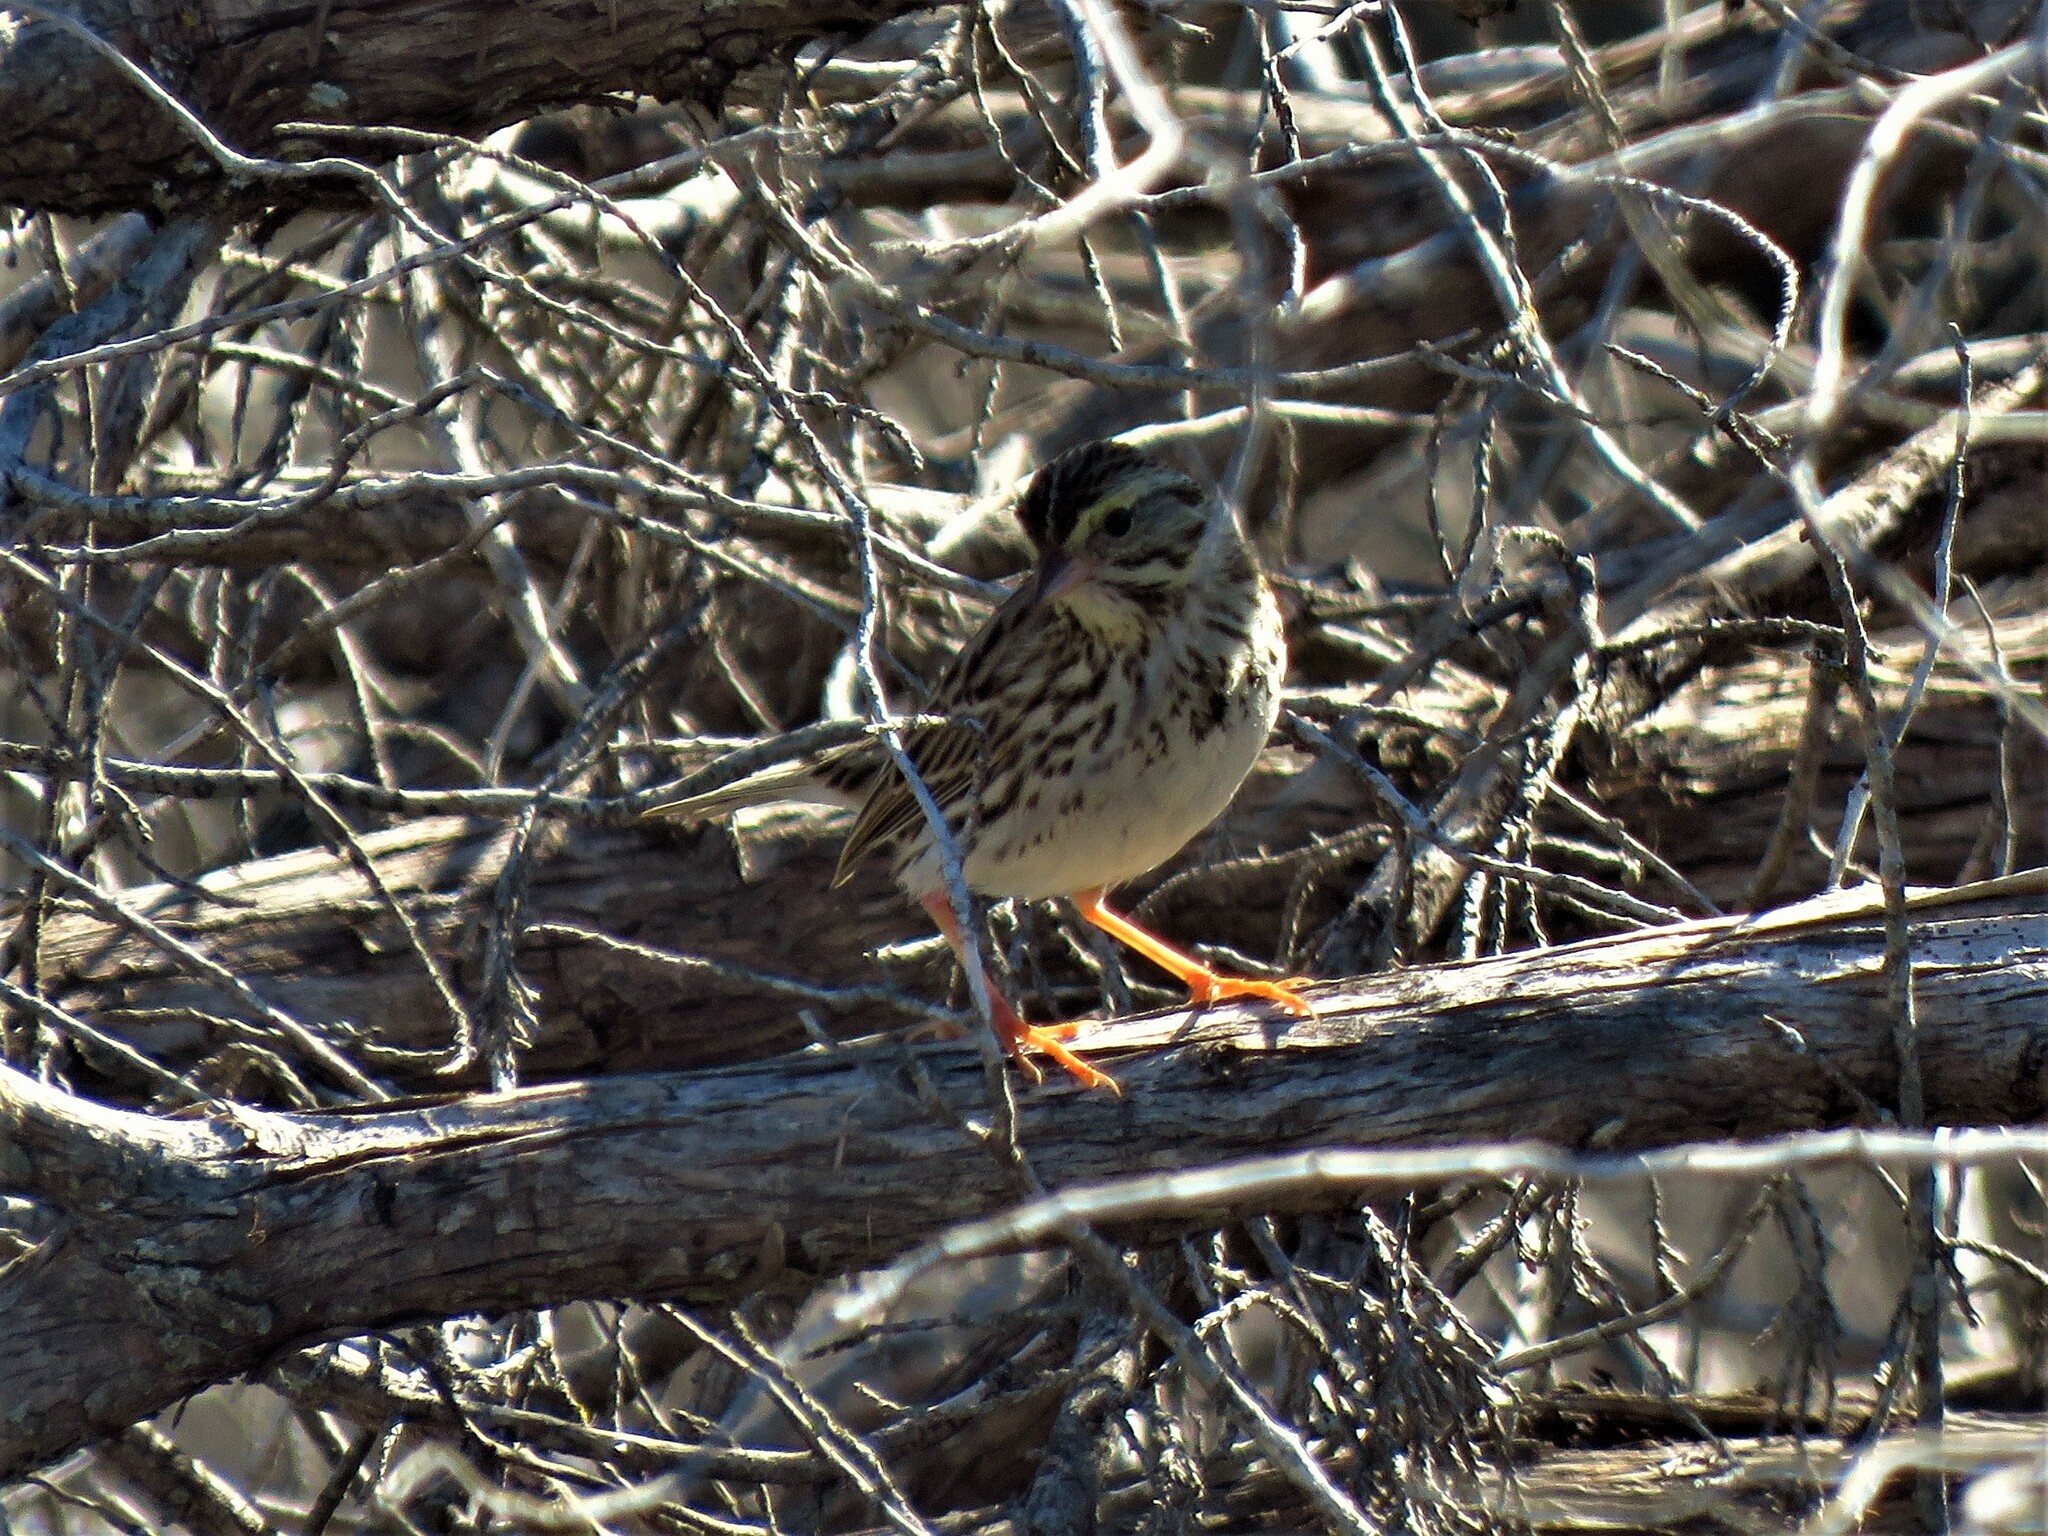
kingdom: Animalia
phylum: Chordata
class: Aves
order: Passeriformes
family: Passerellidae
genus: Passerculus
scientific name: Passerculus sandwichensis
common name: Savannah sparrow
